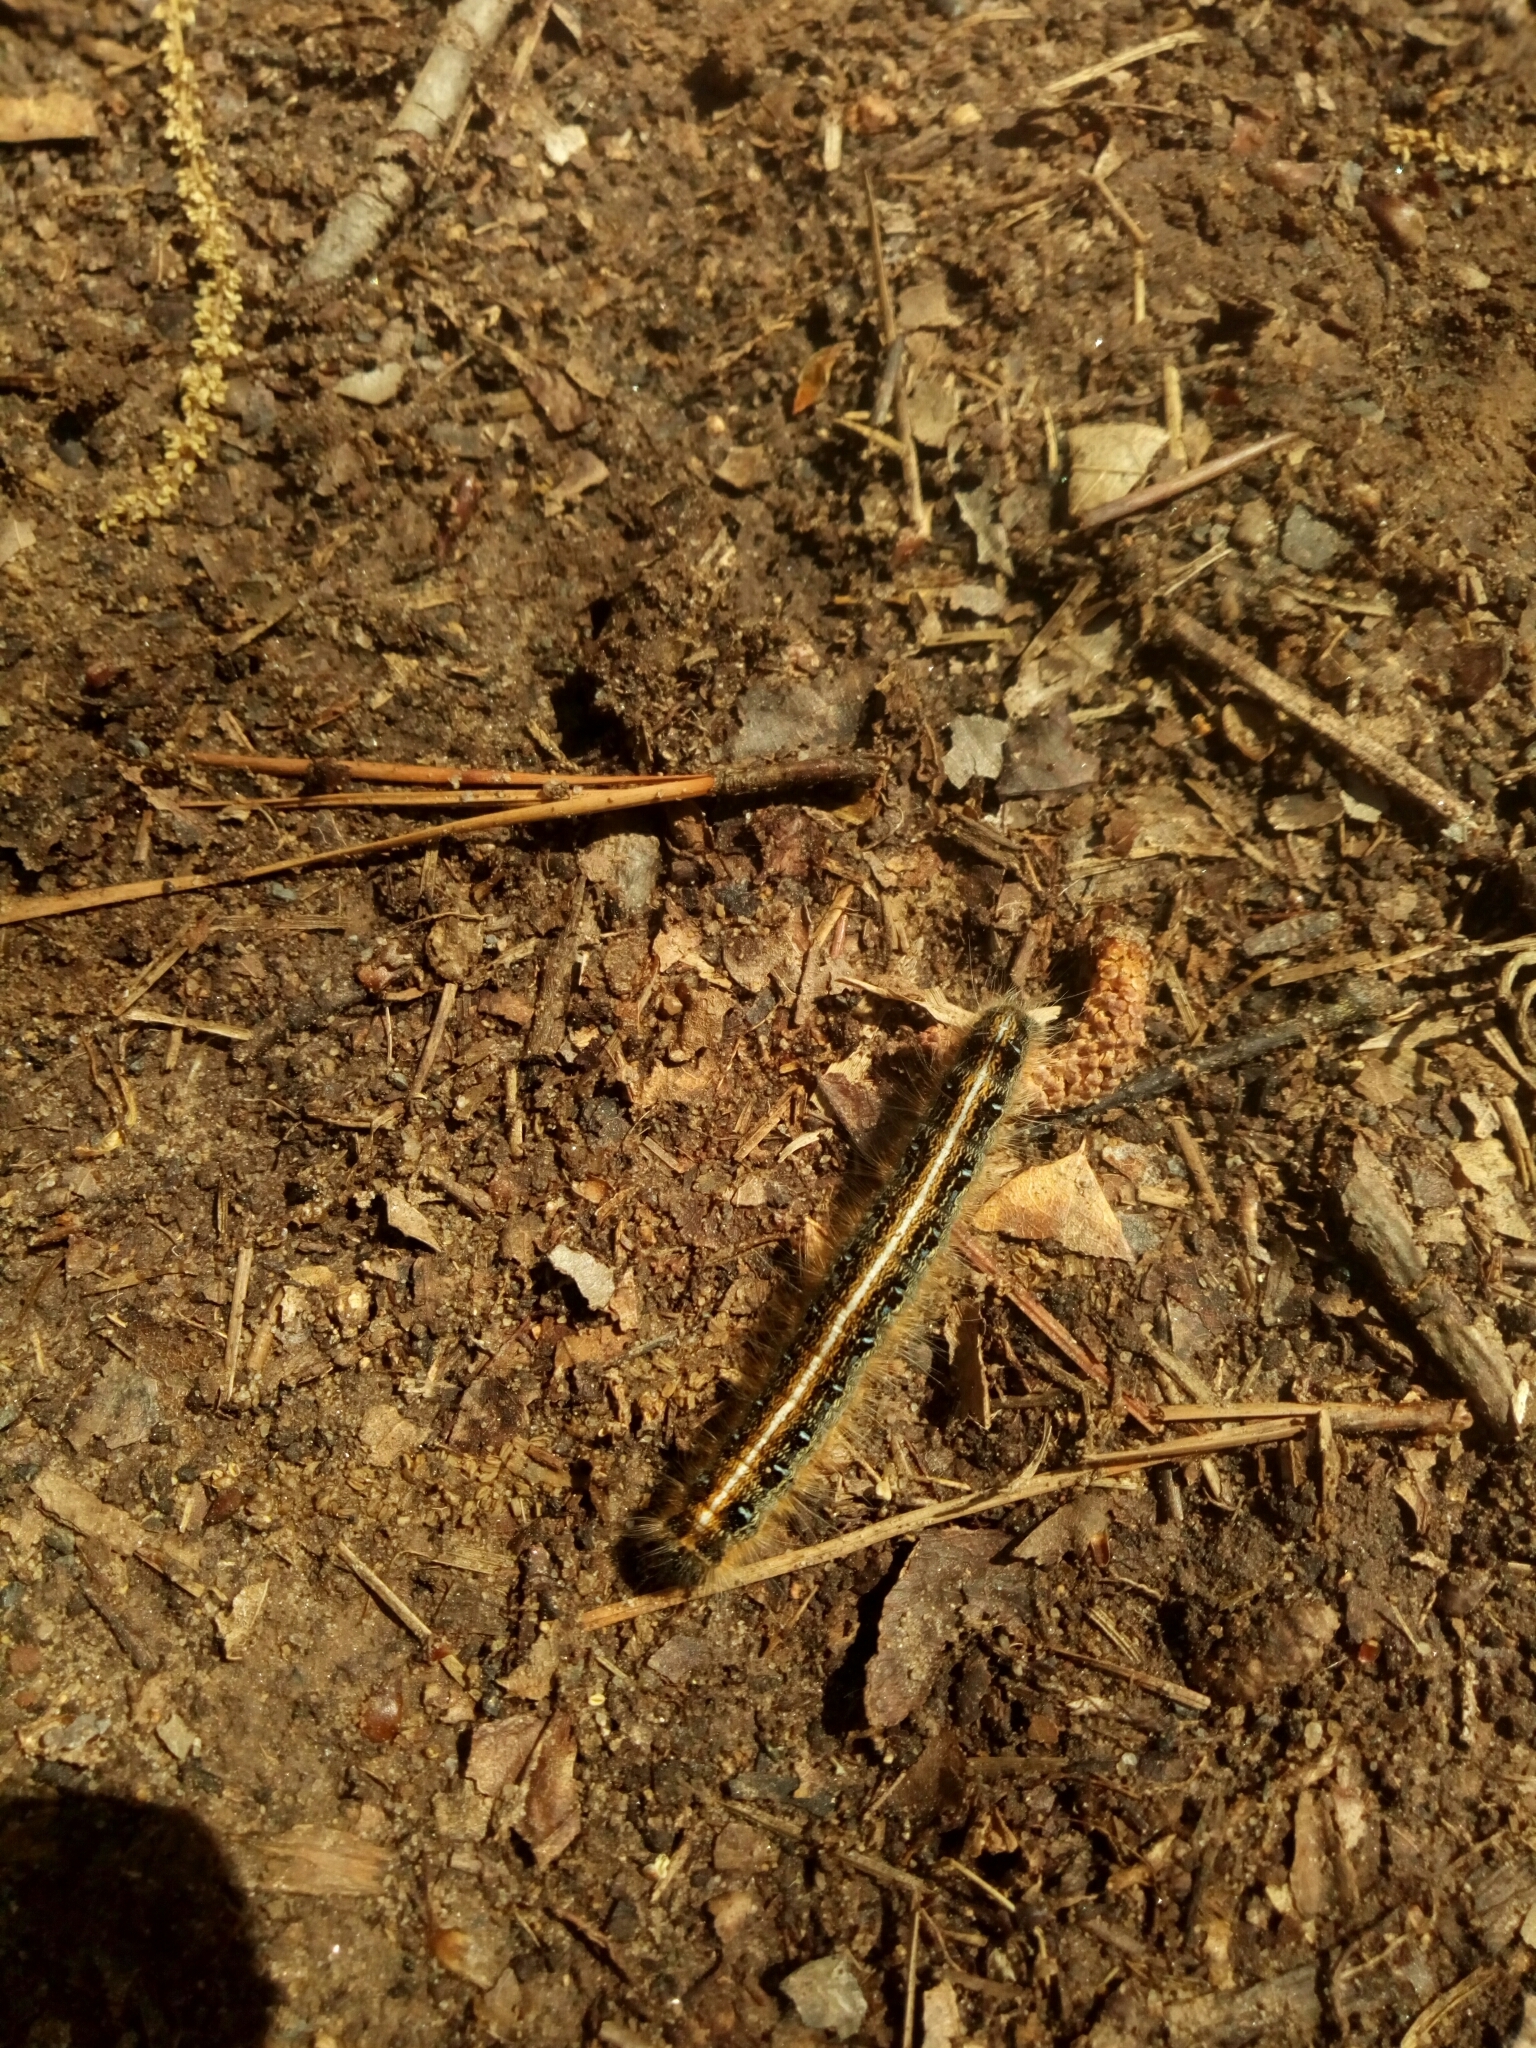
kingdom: Animalia
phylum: Arthropoda
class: Insecta
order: Lepidoptera
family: Lasiocampidae
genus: Malacosoma
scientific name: Malacosoma americana
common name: Eastern tent caterpillar moth
